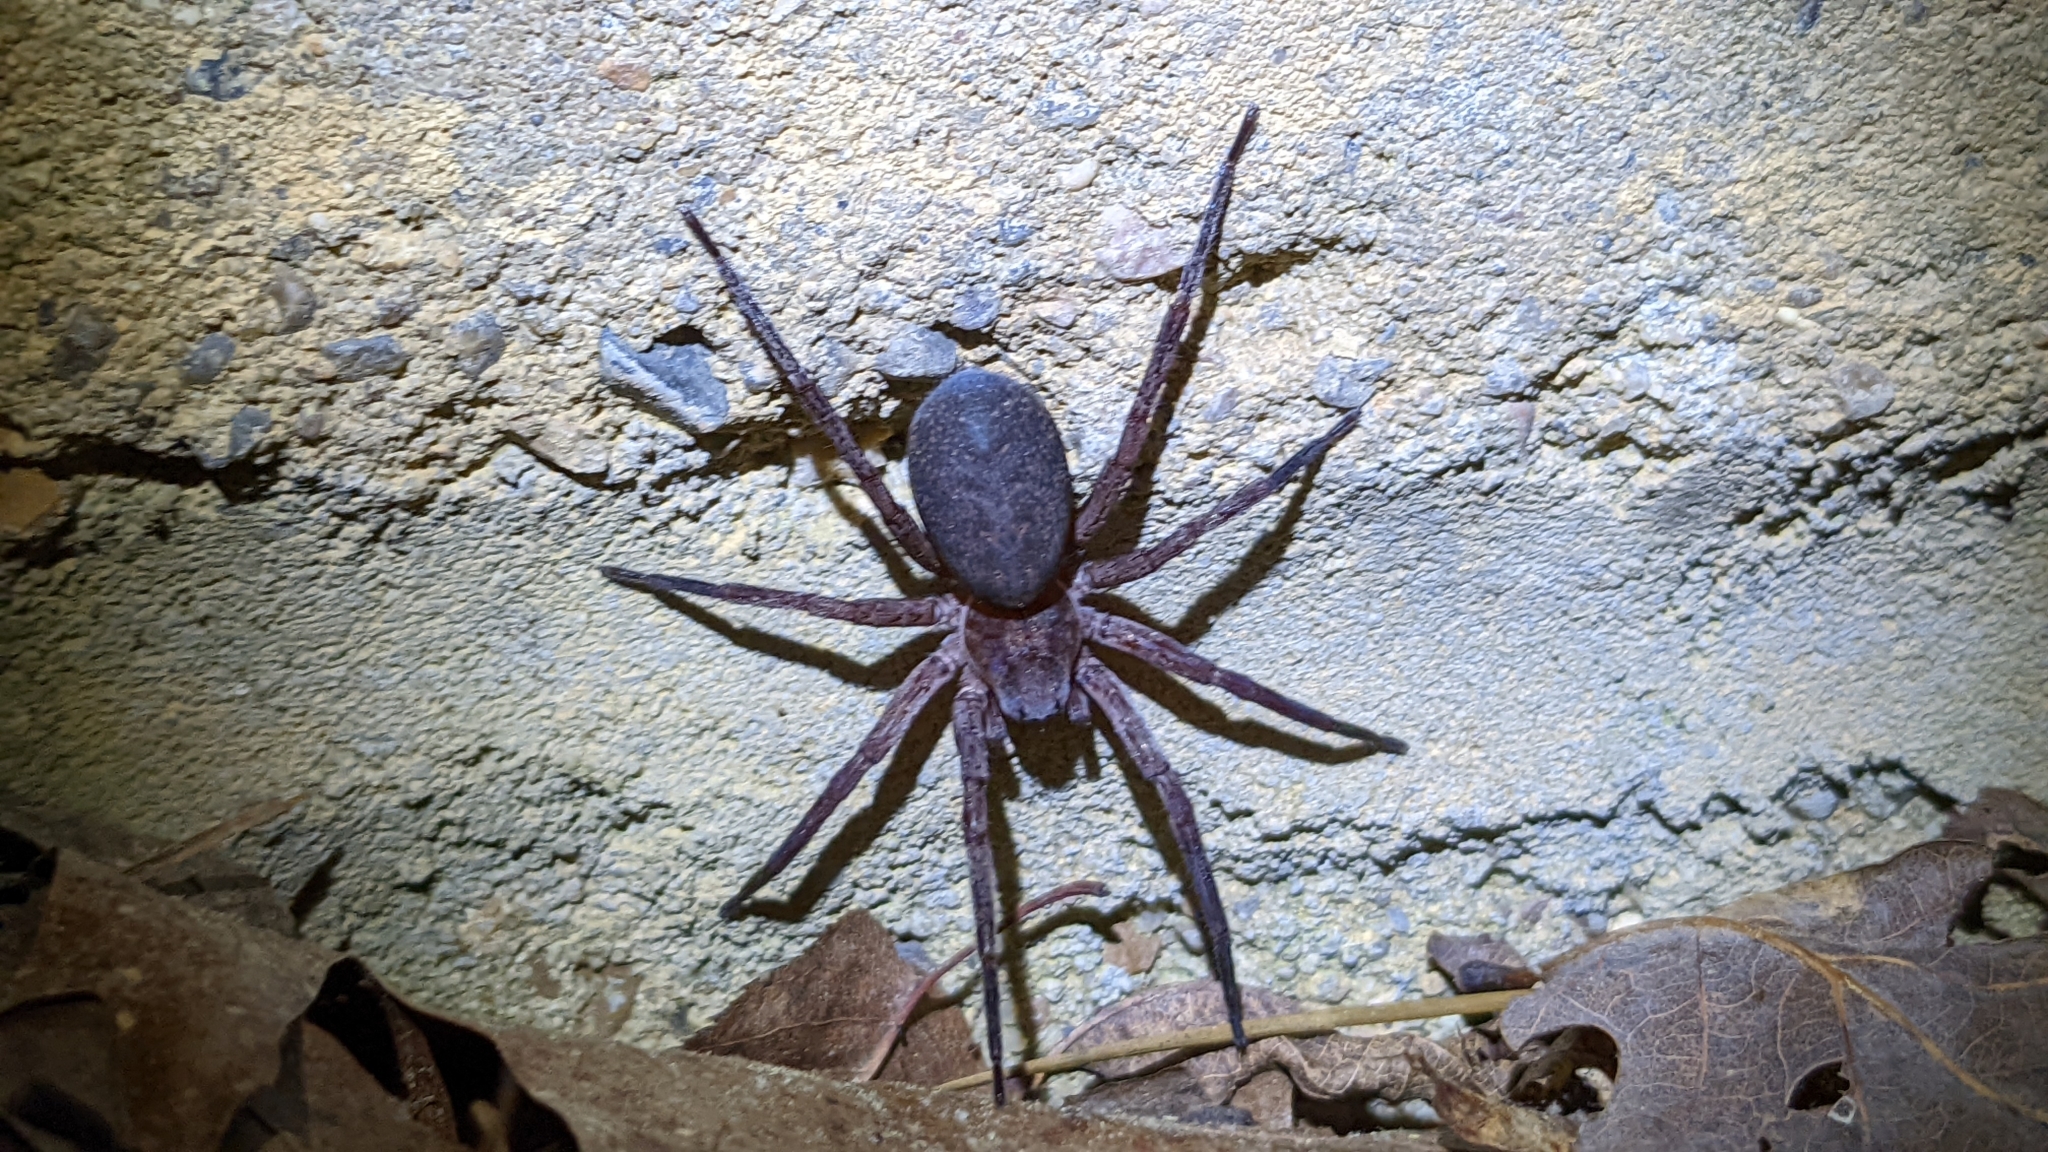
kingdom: Animalia
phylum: Arthropoda
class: Arachnida
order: Araneae
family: Ctenidae
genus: Ctenus
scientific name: Ctenus exlineae
